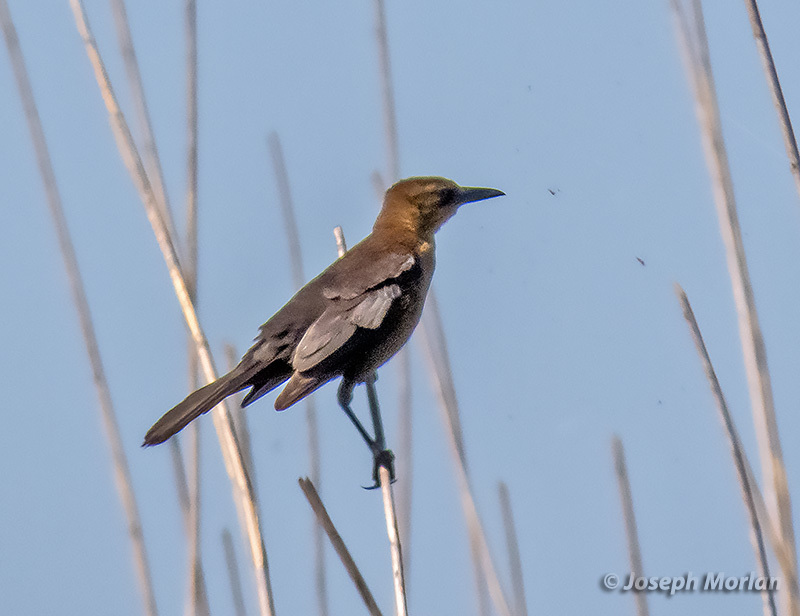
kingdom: Animalia
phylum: Chordata
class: Aves
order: Passeriformes
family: Icteridae
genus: Quiscalus
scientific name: Quiscalus major
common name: Boat-tailed grackle
